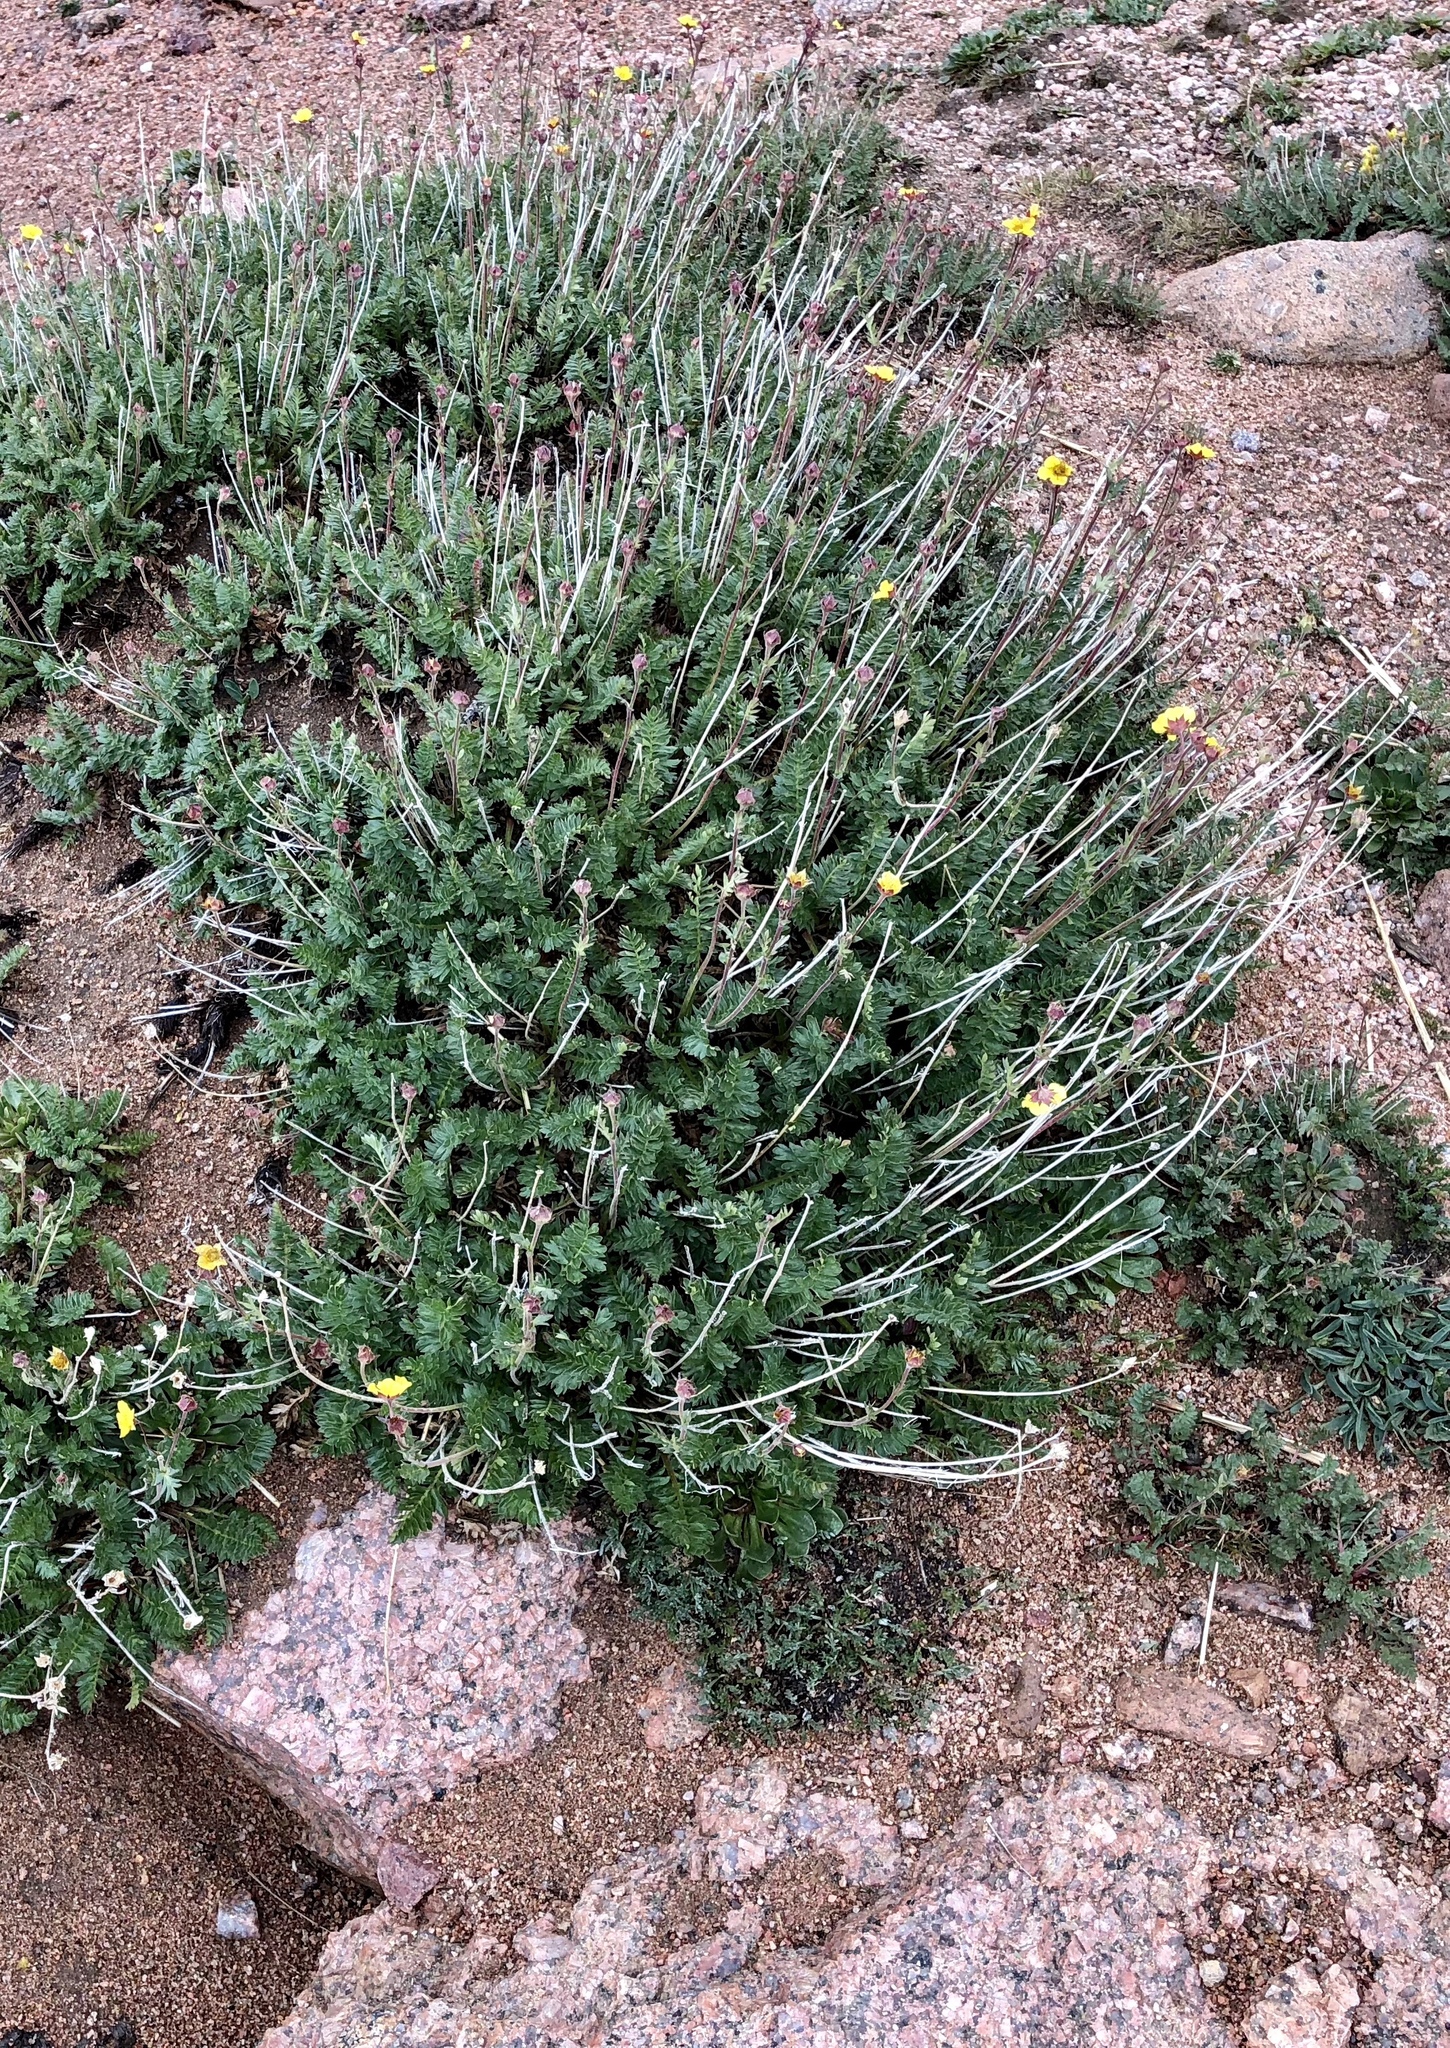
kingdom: Plantae
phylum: Tracheophyta
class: Magnoliopsida
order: Rosales
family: Rosaceae
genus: Geum
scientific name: Geum rossii
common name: Alpine avens
